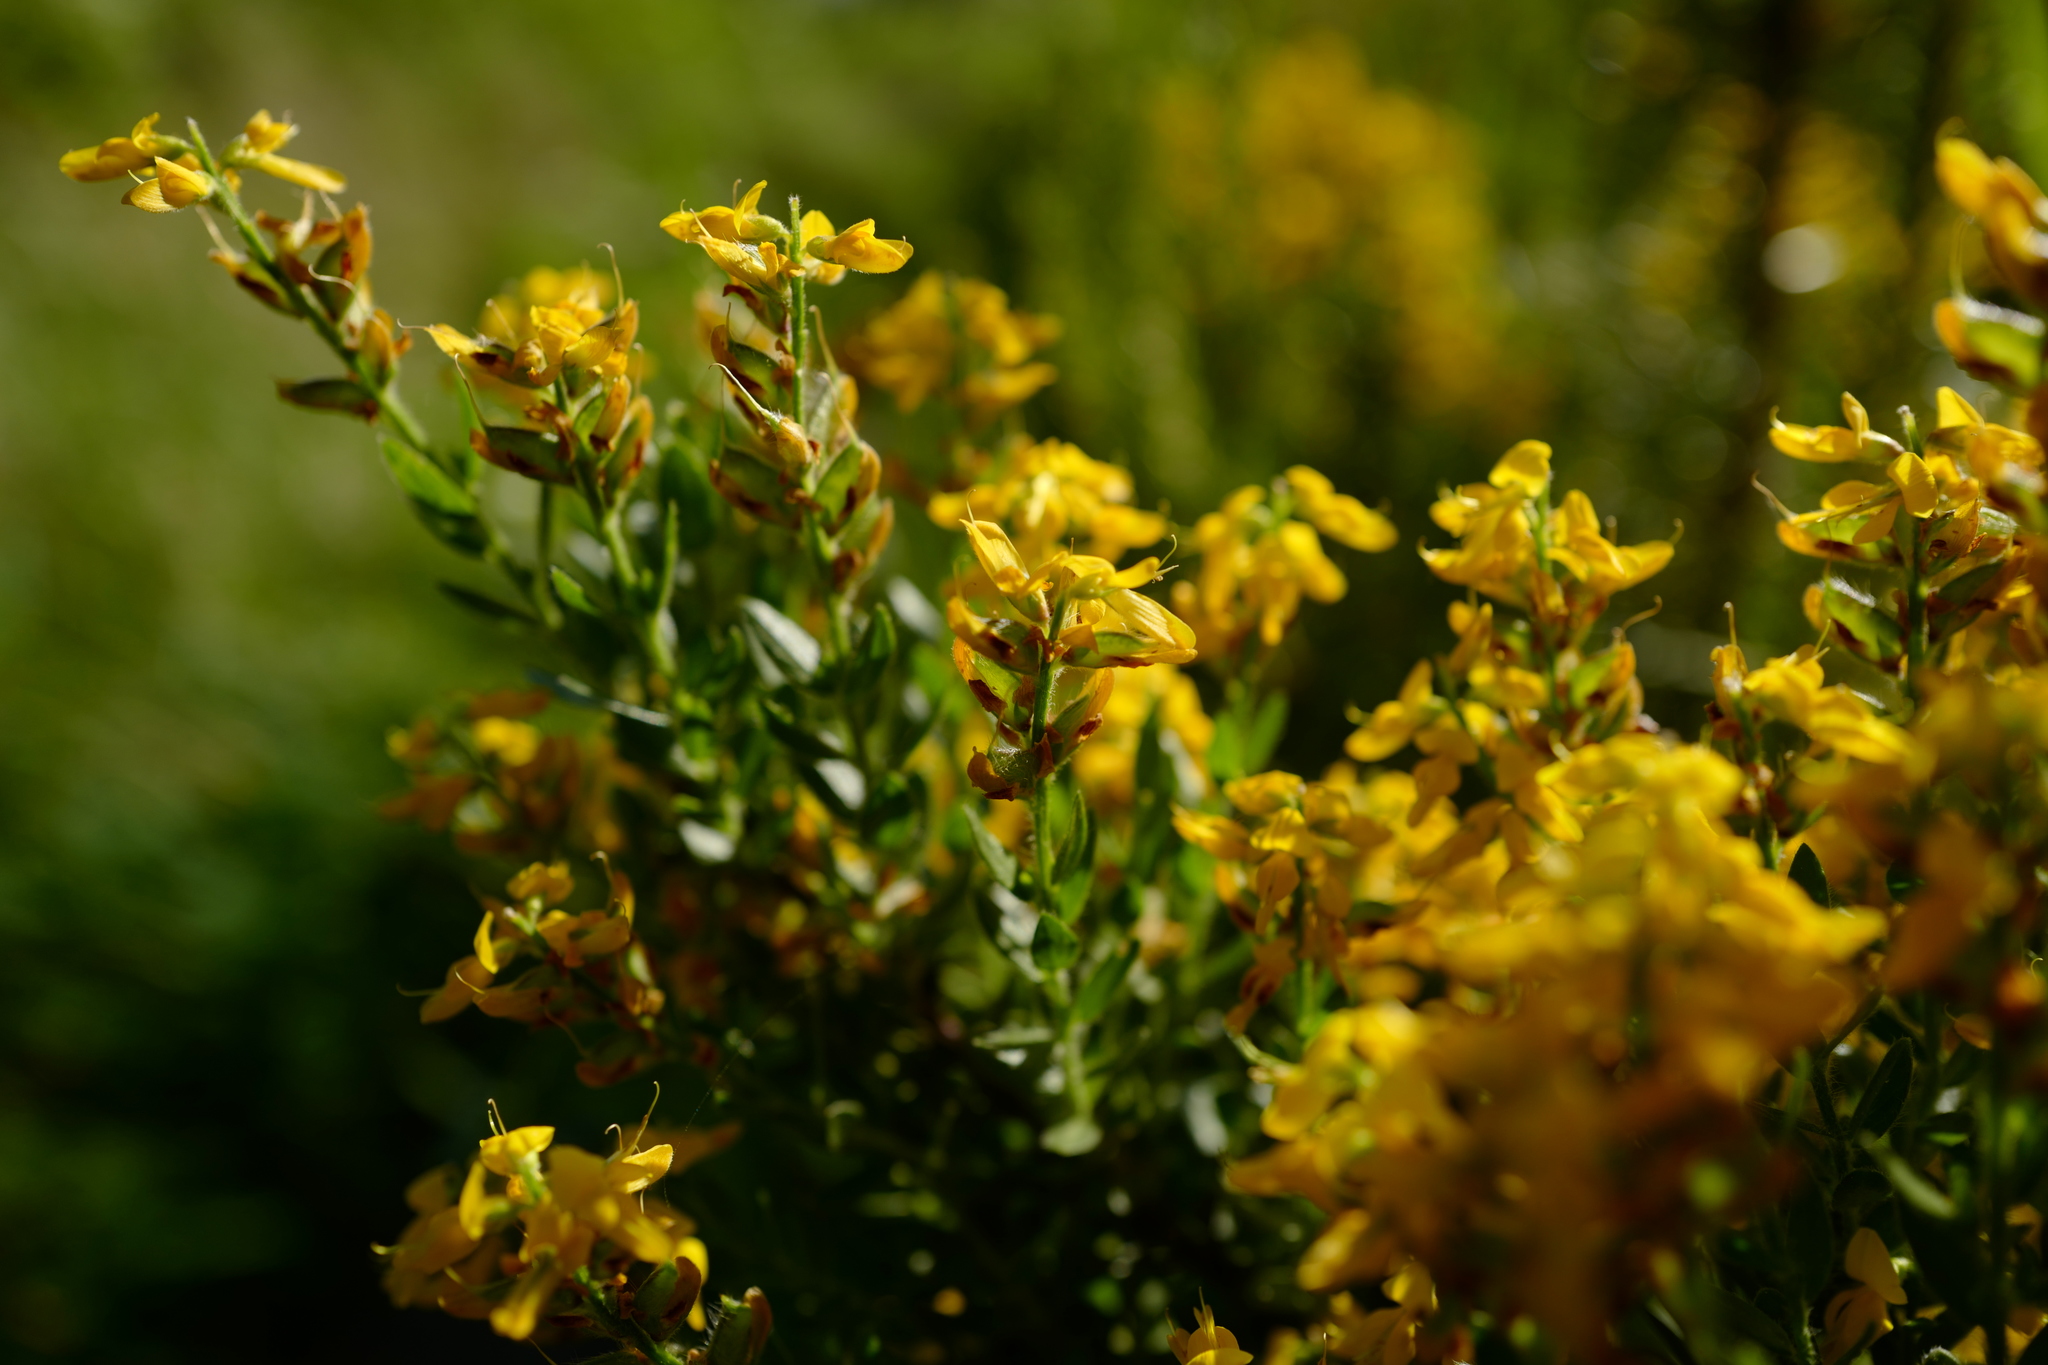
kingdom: Plantae
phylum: Tracheophyta
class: Magnoliopsida
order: Fabales
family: Fabaceae
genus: Genista
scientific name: Genista germanica
